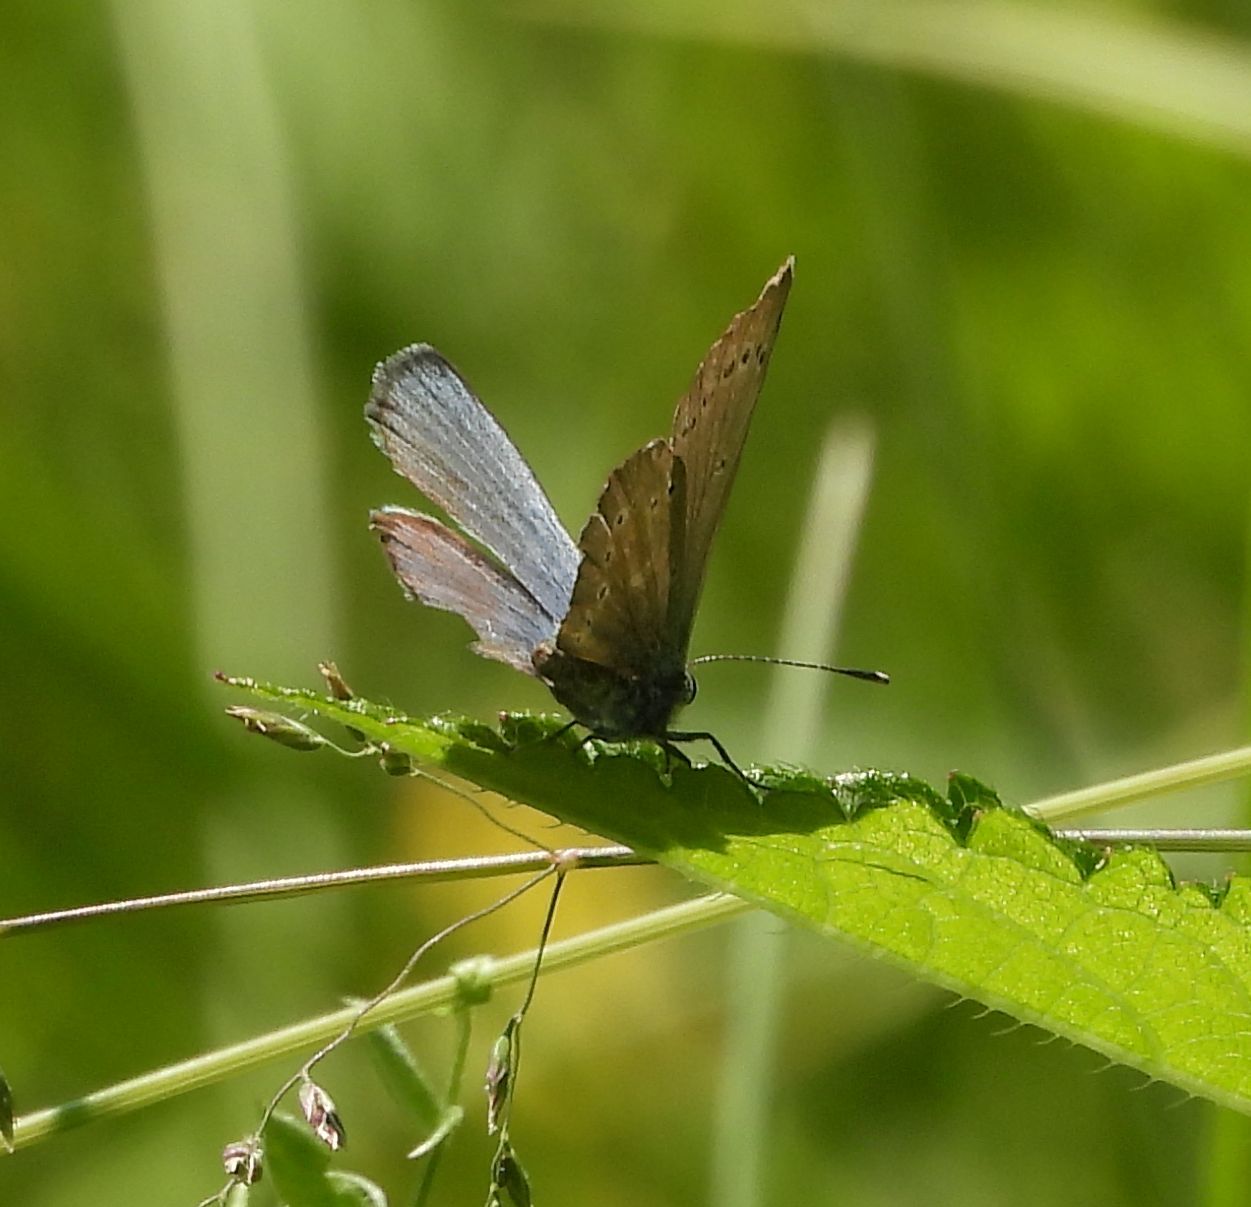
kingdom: Animalia
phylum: Arthropoda
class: Insecta
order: Lepidoptera
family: Lycaenidae
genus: Glaucopsyche
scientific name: Glaucopsyche lygdamus
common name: Silvery blue
